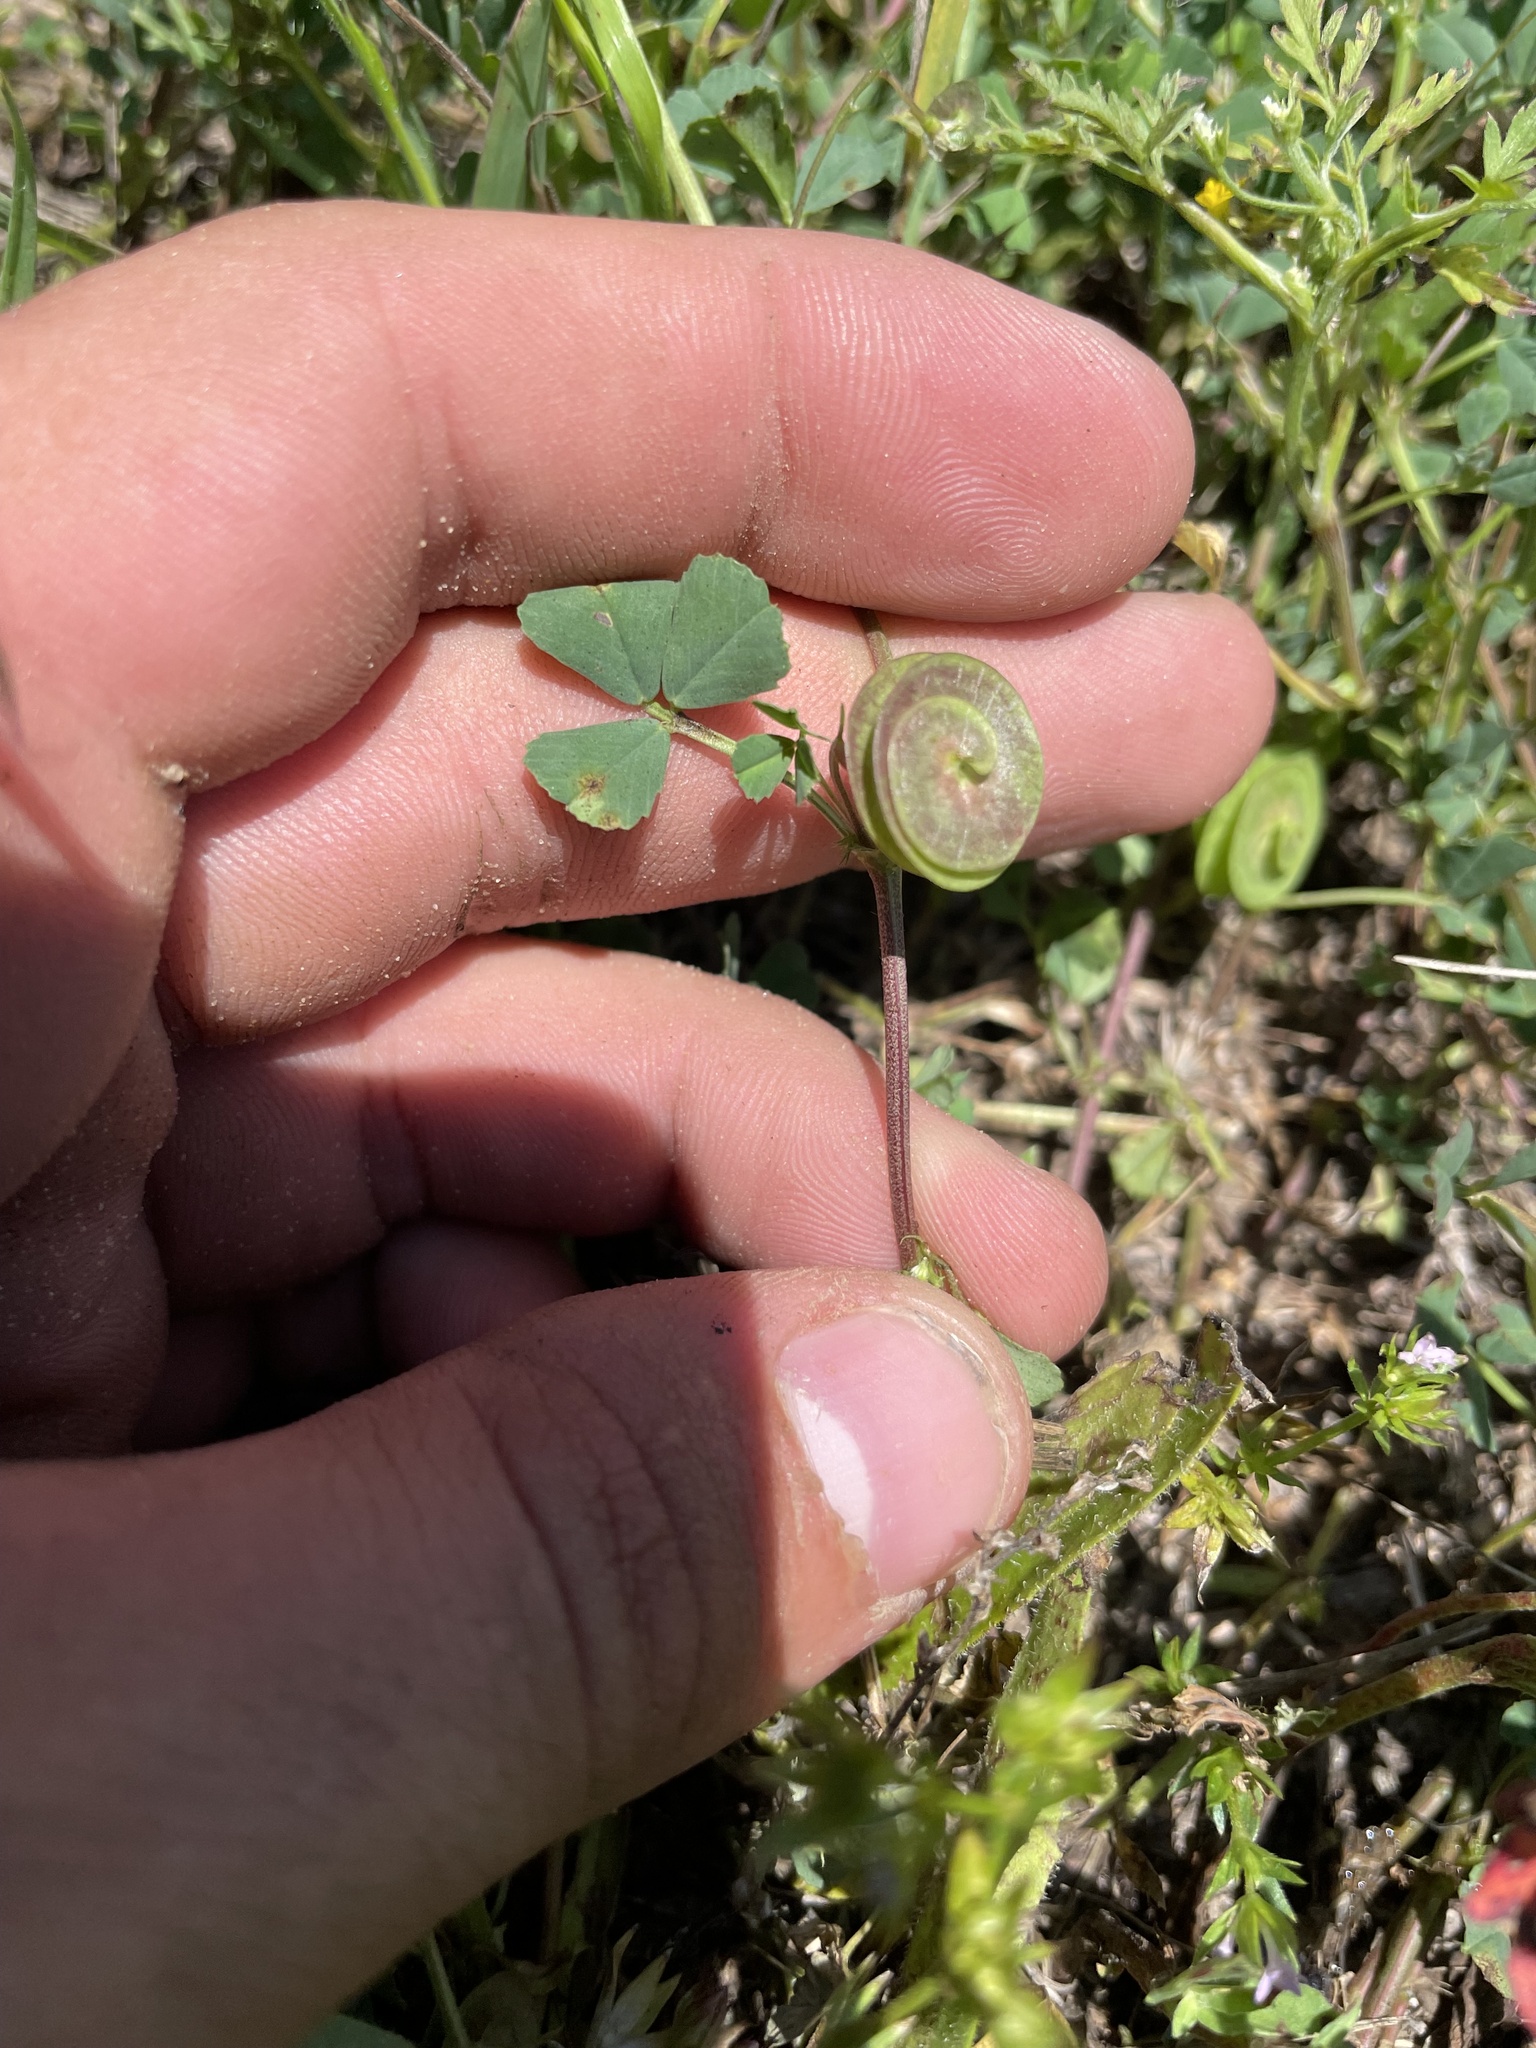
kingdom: Plantae
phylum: Tracheophyta
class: Magnoliopsida
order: Fabales
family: Fabaceae
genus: Medicago
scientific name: Medicago orbicularis
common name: Button medick
